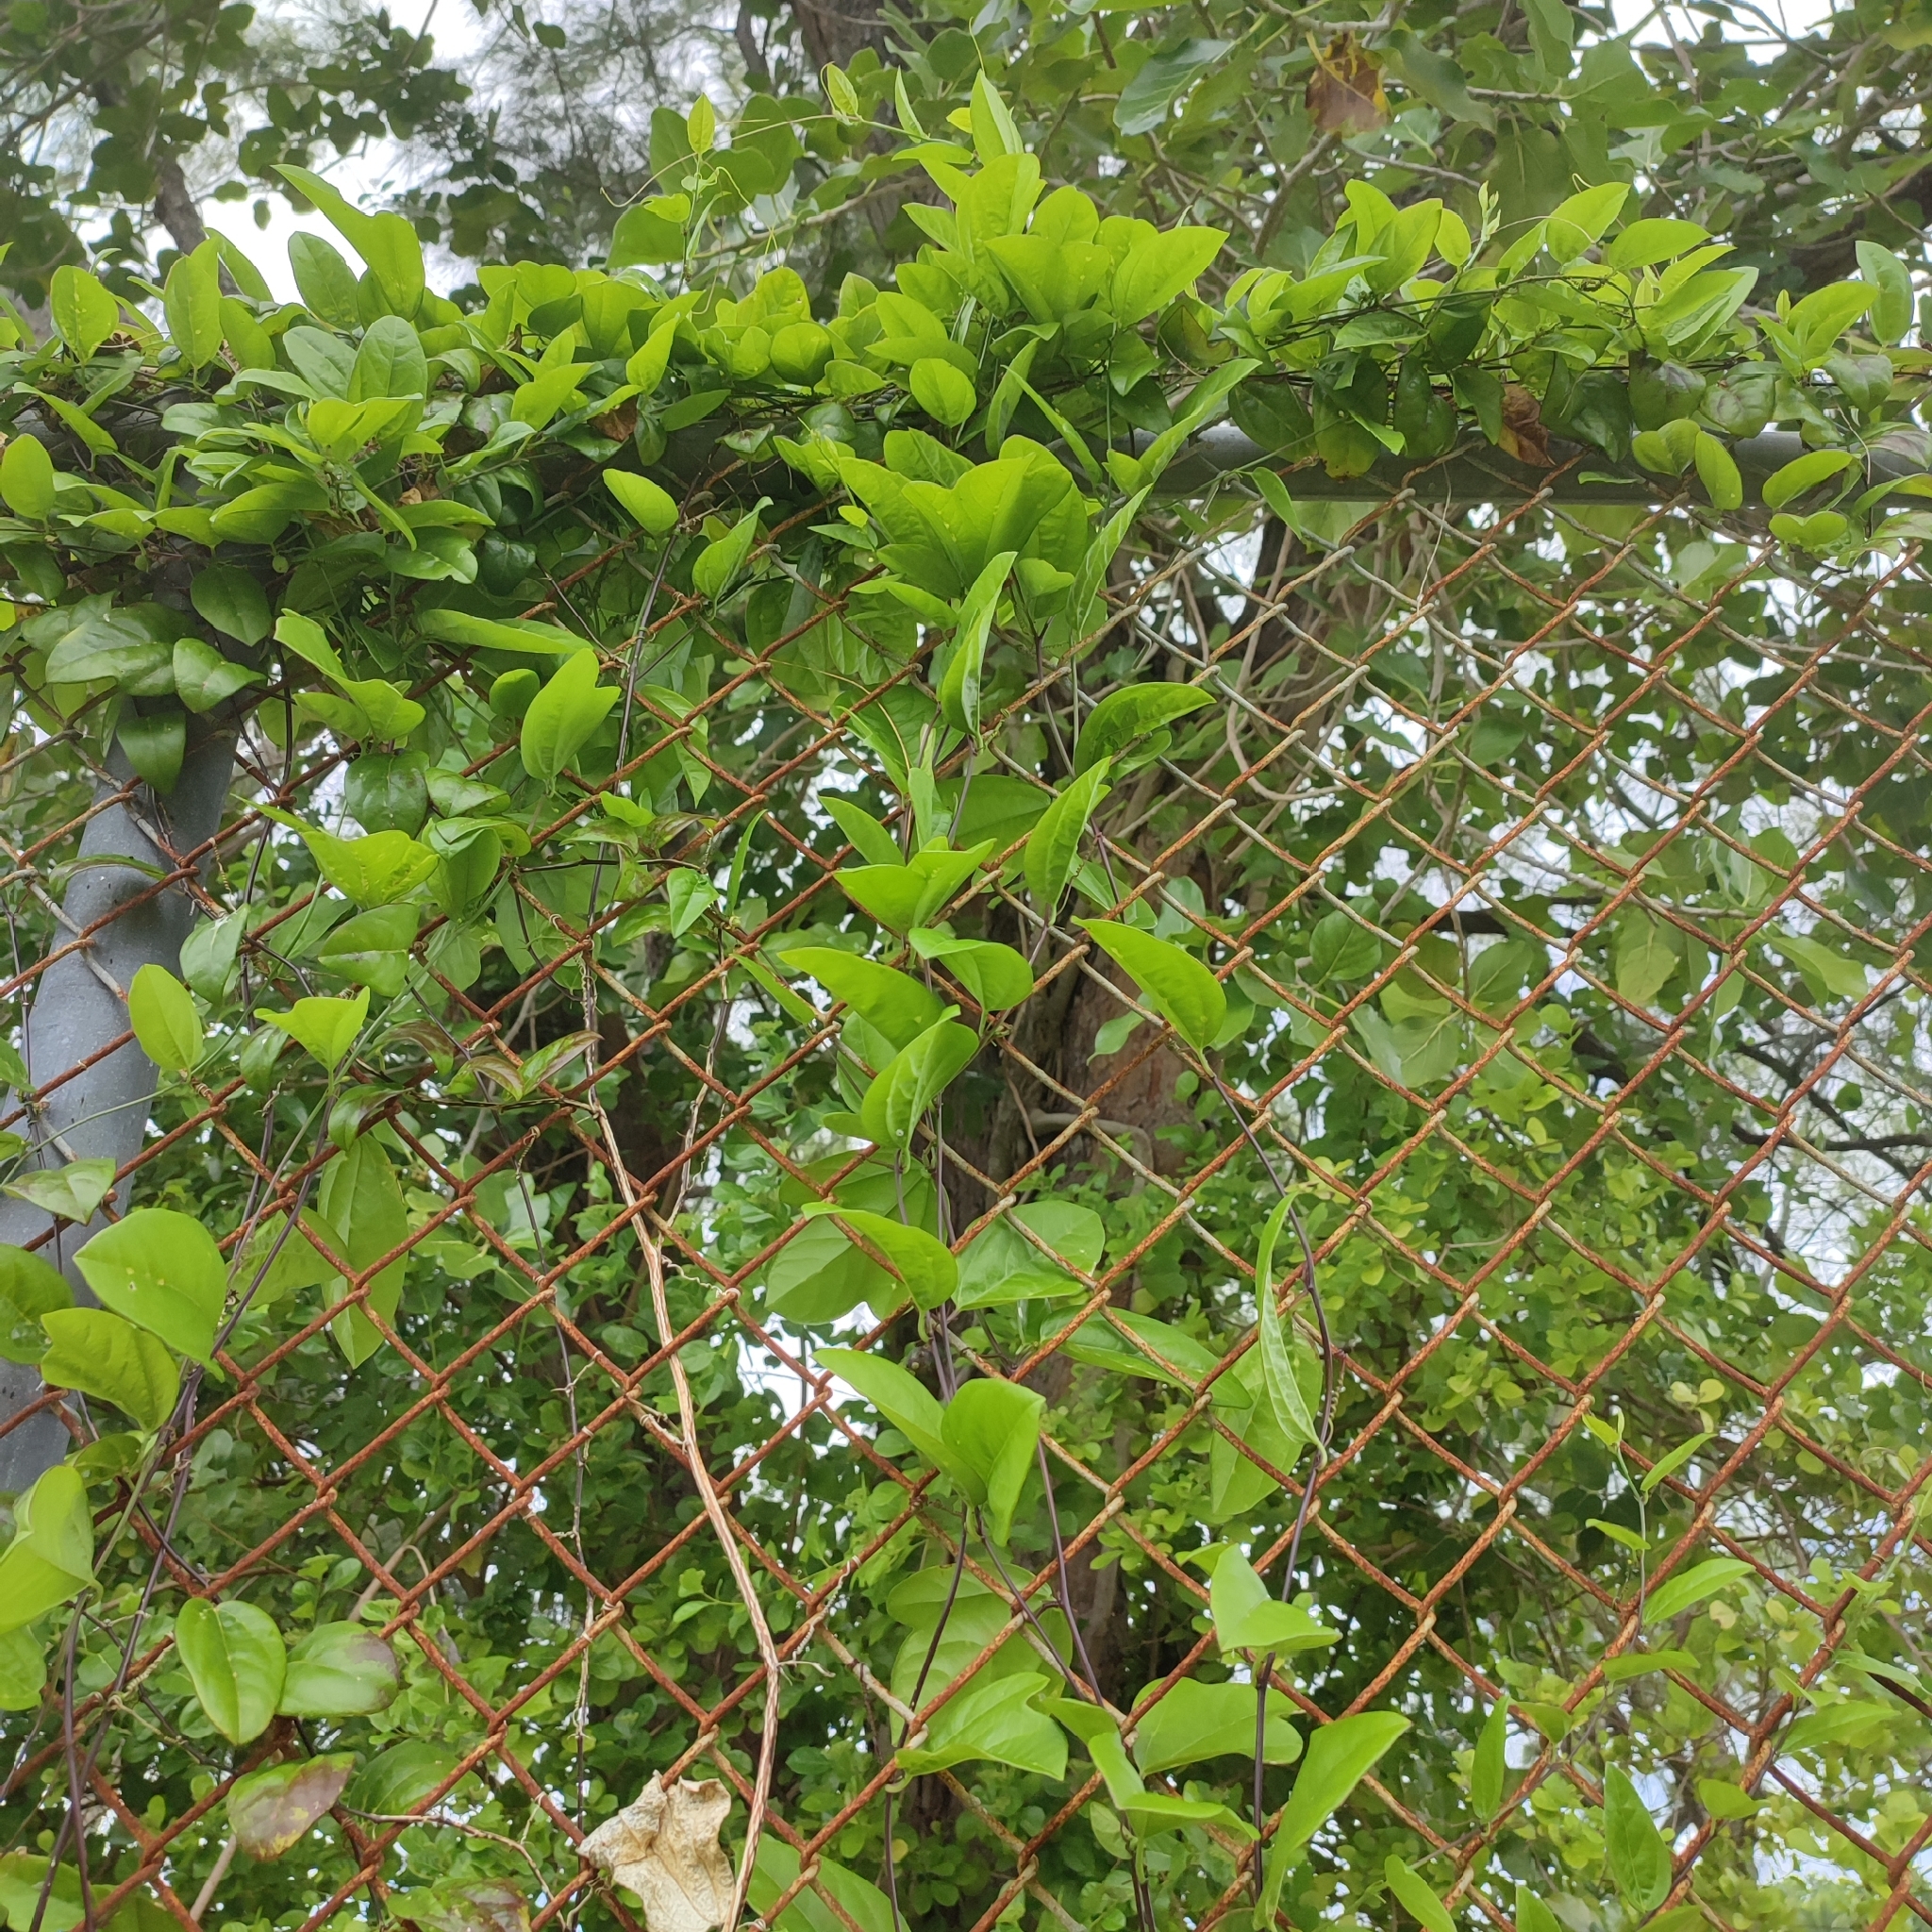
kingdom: Plantae
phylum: Tracheophyta
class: Magnoliopsida
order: Malpighiales
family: Passifloraceae
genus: Passiflora
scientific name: Passiflora pallida
